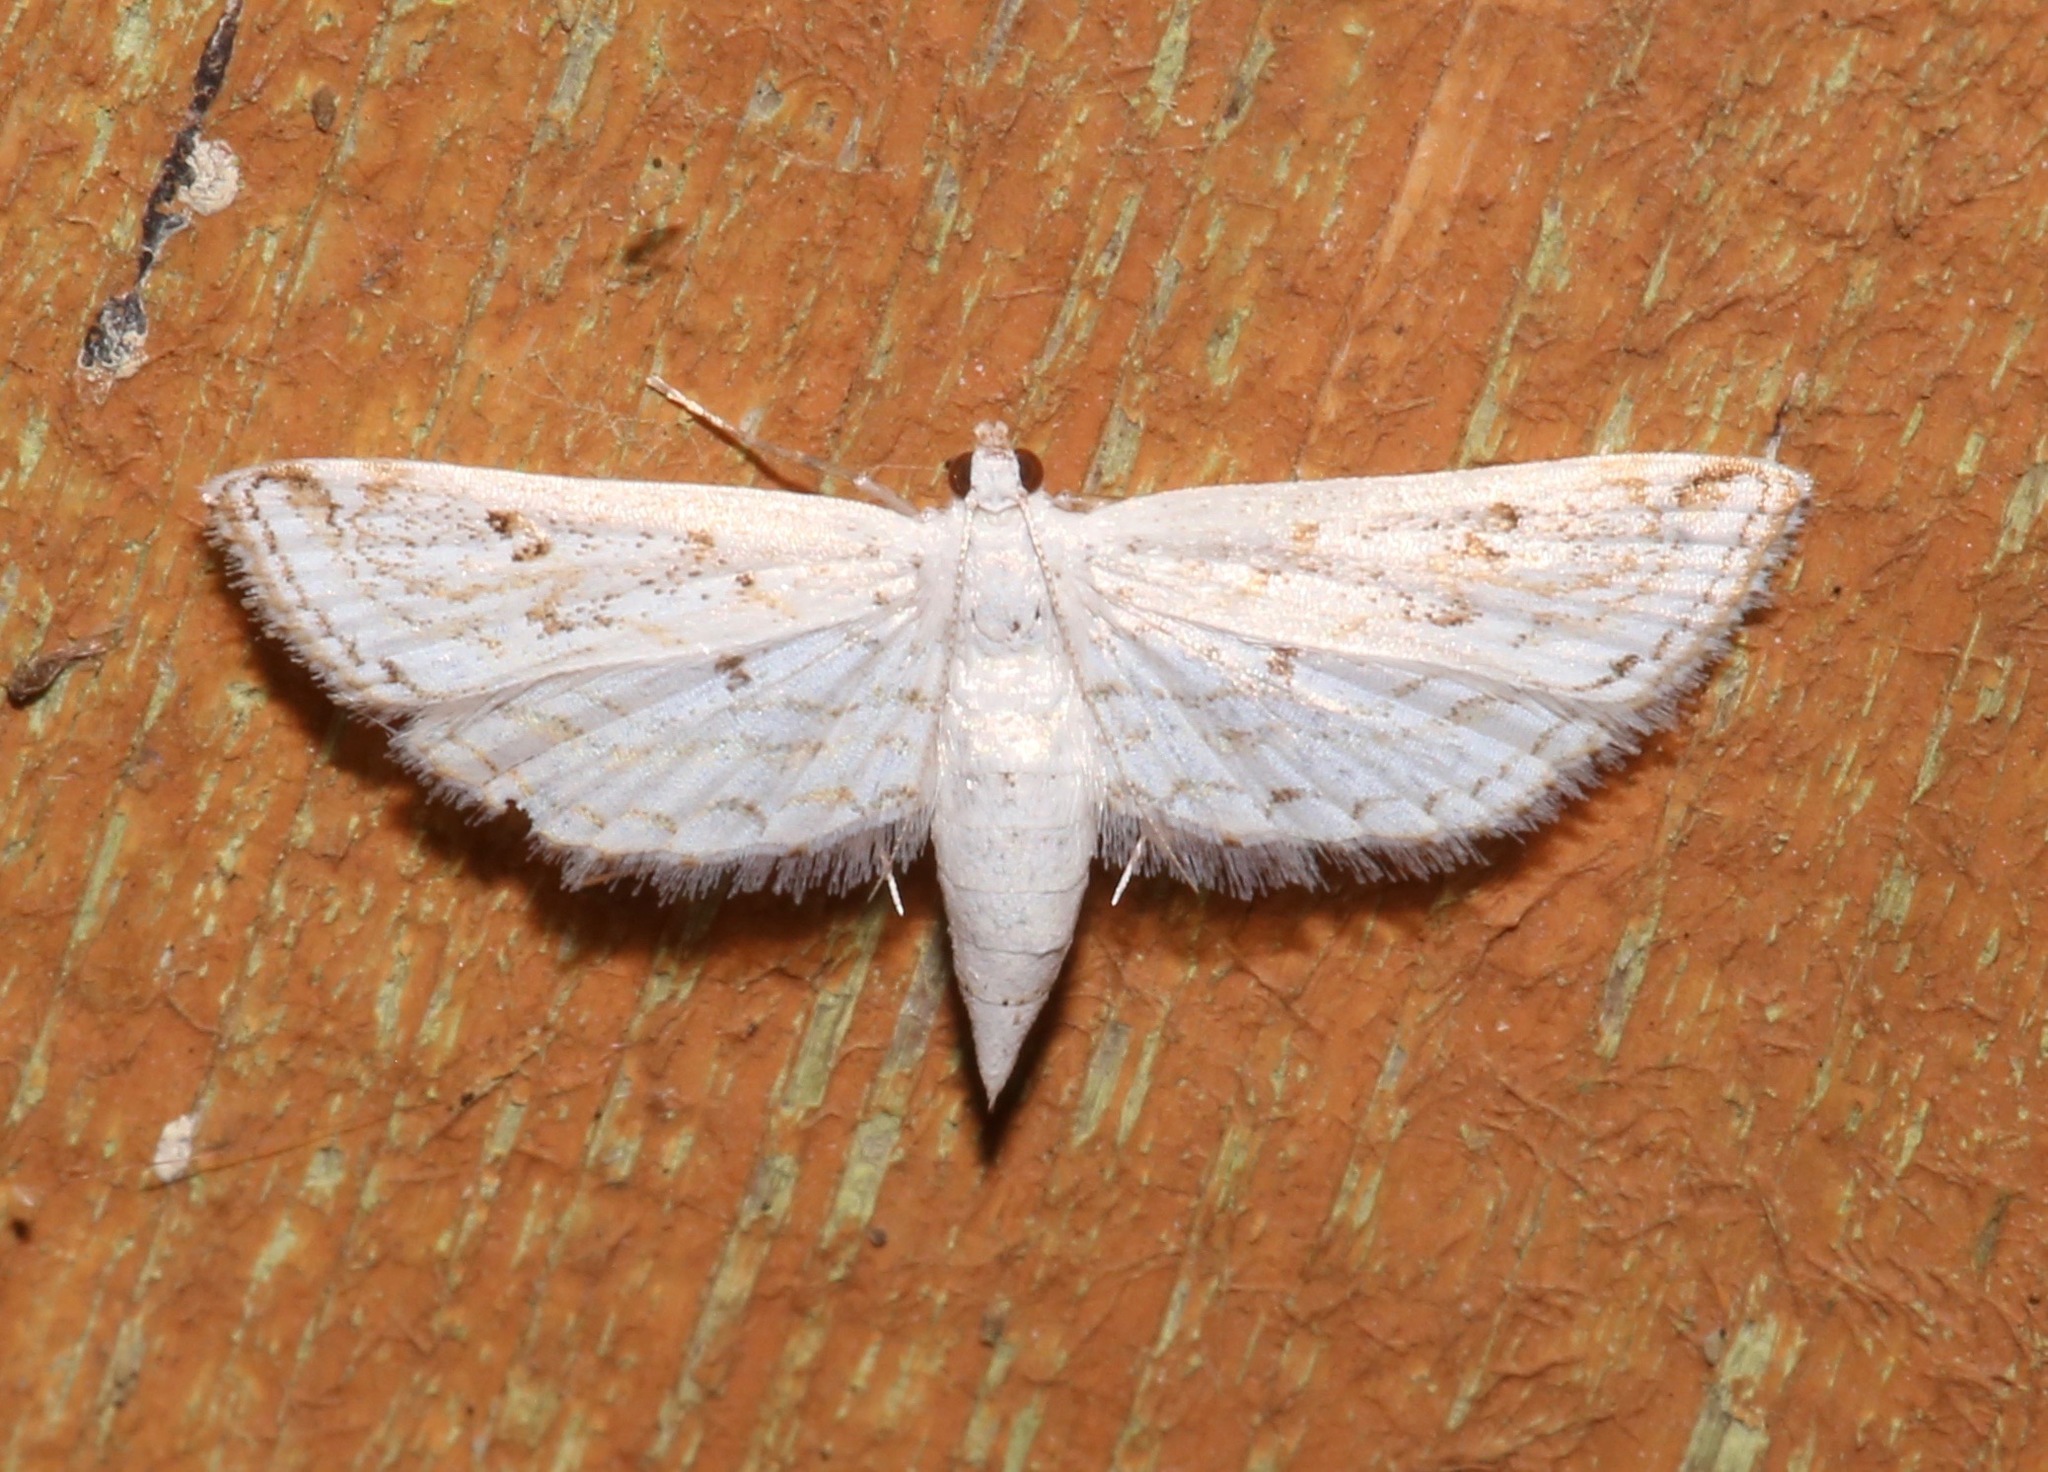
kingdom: Animalia
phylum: Arthropoda
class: Insecta
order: Lepidoptera
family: Crambidae
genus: Parapoynx
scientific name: Parapoynx allionealis
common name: Bladderwort casemaker
